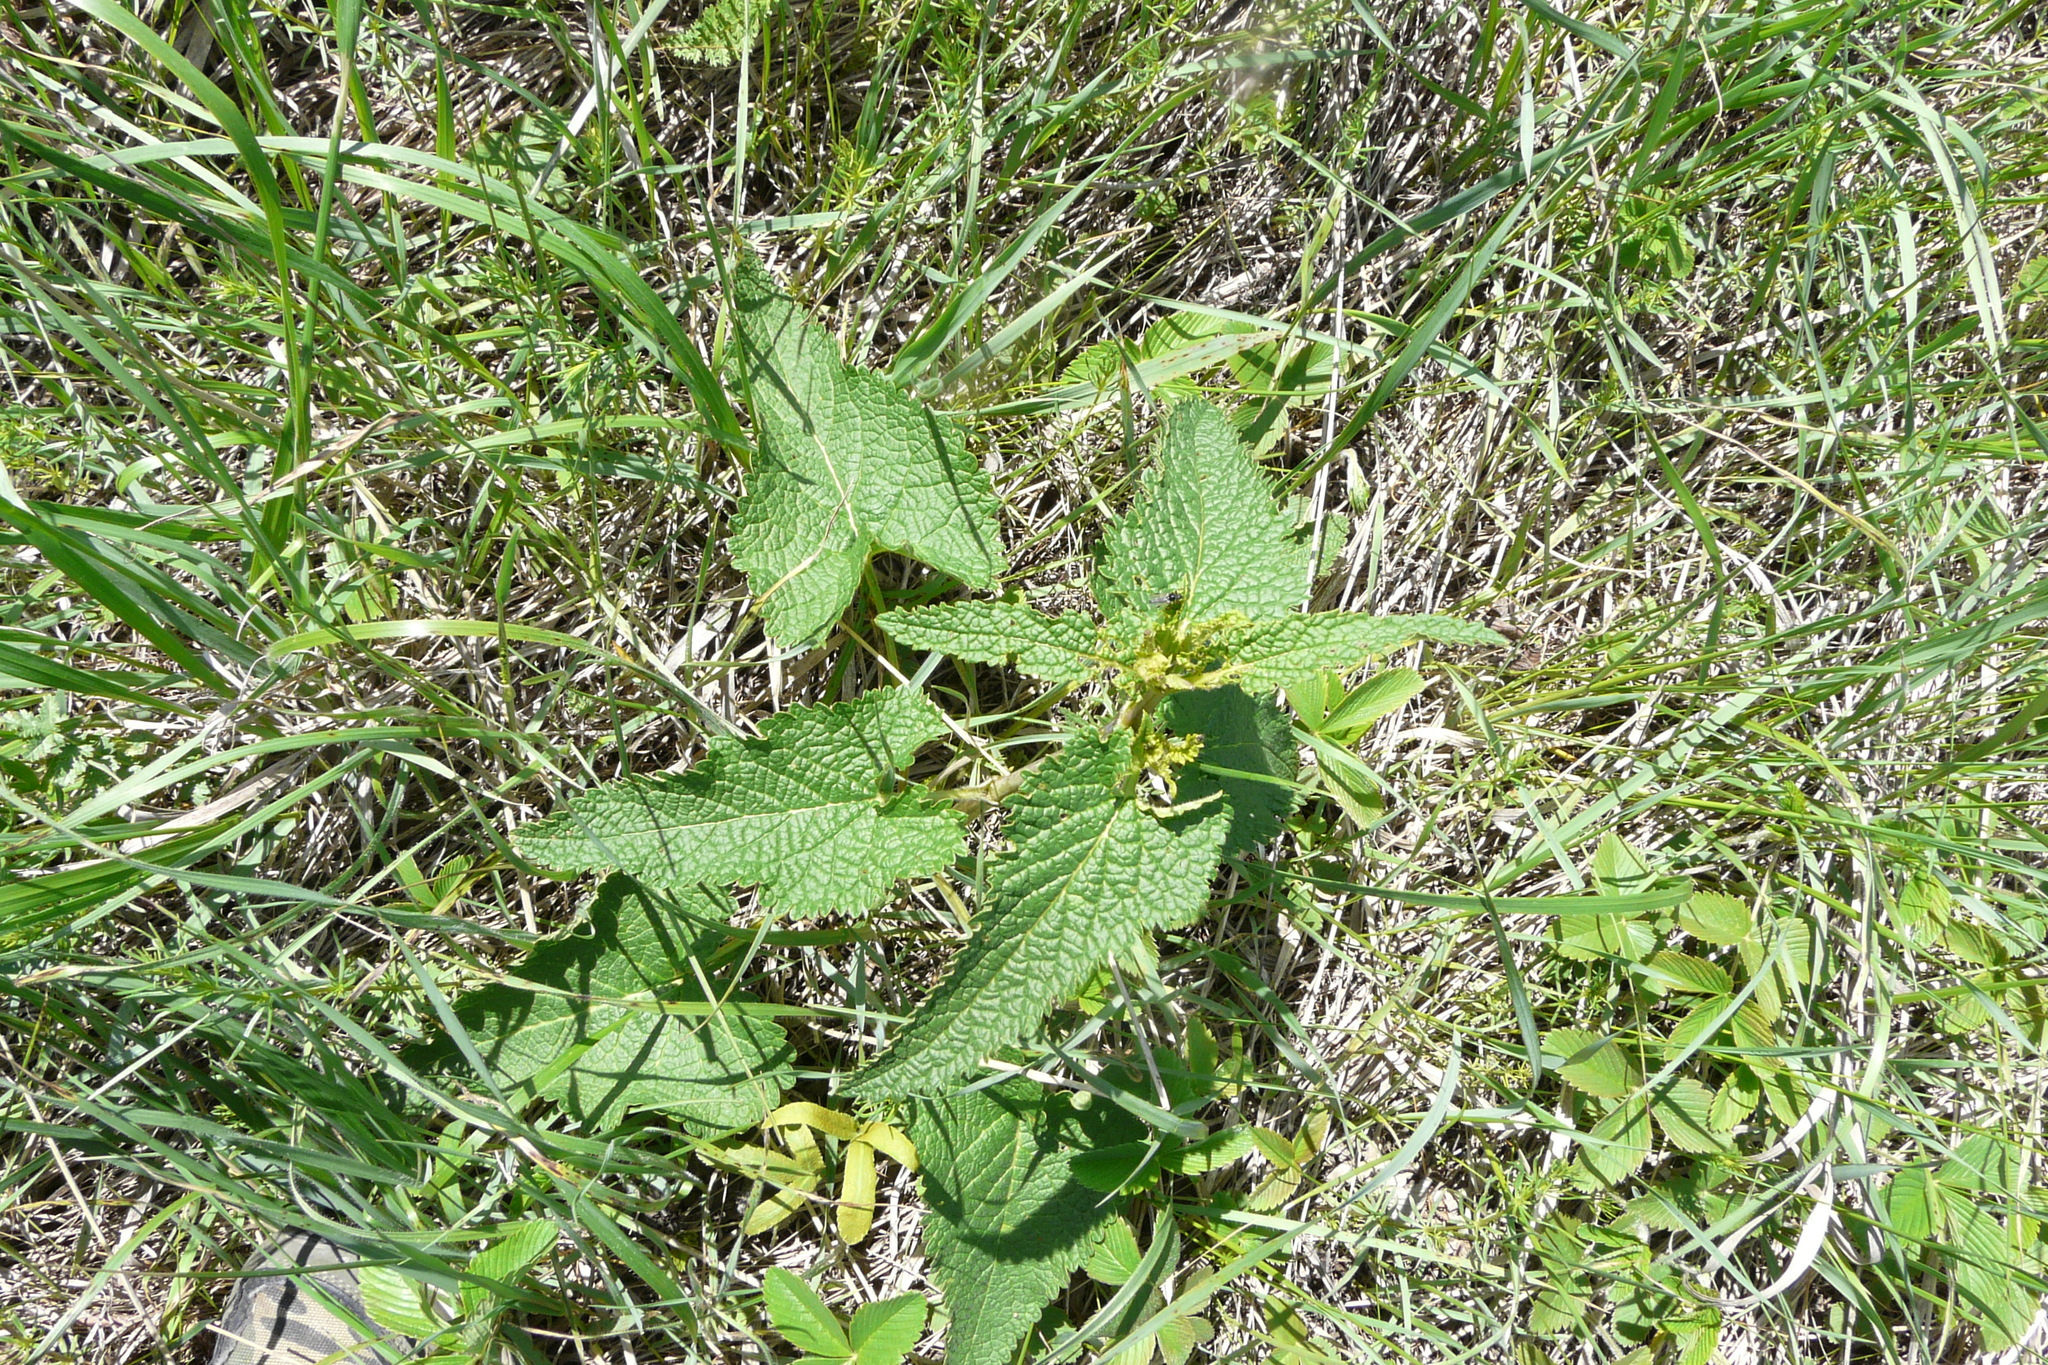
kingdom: Plantae
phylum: Tracheophyta
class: Magnoliopsida
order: Lamiales
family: Lamiaceae
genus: Phlomoides
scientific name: Phlomoides tuberosa
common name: Tuberous jerusalem sage
